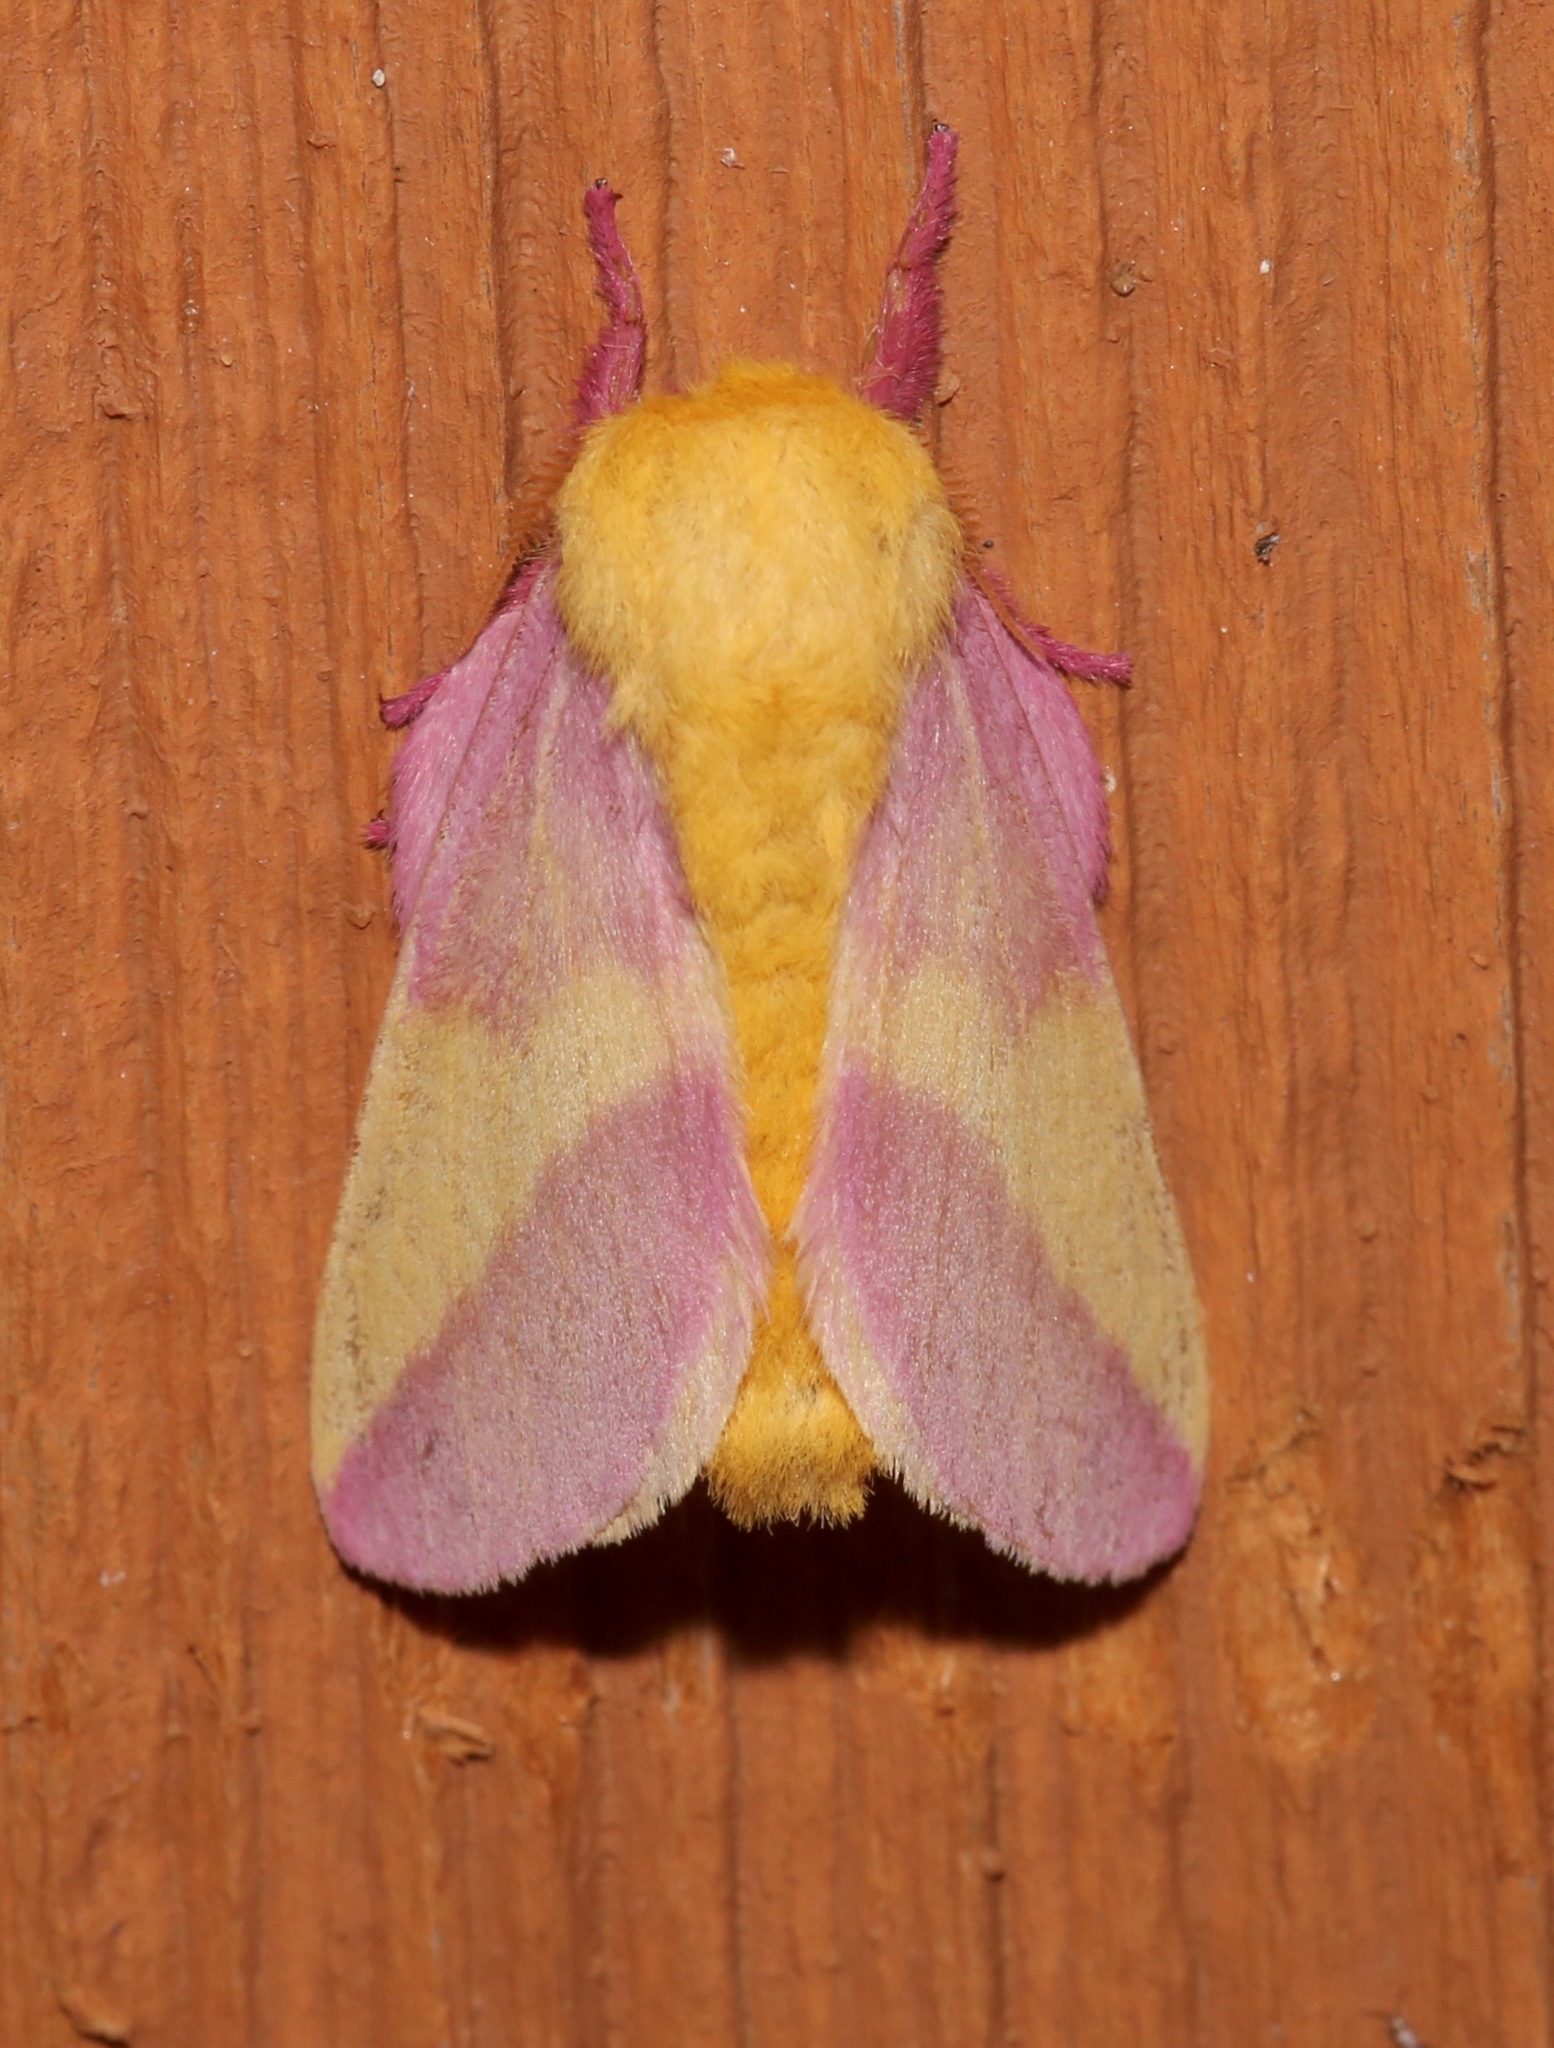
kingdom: Animalia
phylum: Arthropoda
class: Insecta
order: Lepidoptera
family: Saturniidae
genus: Dryocampa
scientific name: Dryocampa rubicunda
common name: Rosy maple moth
